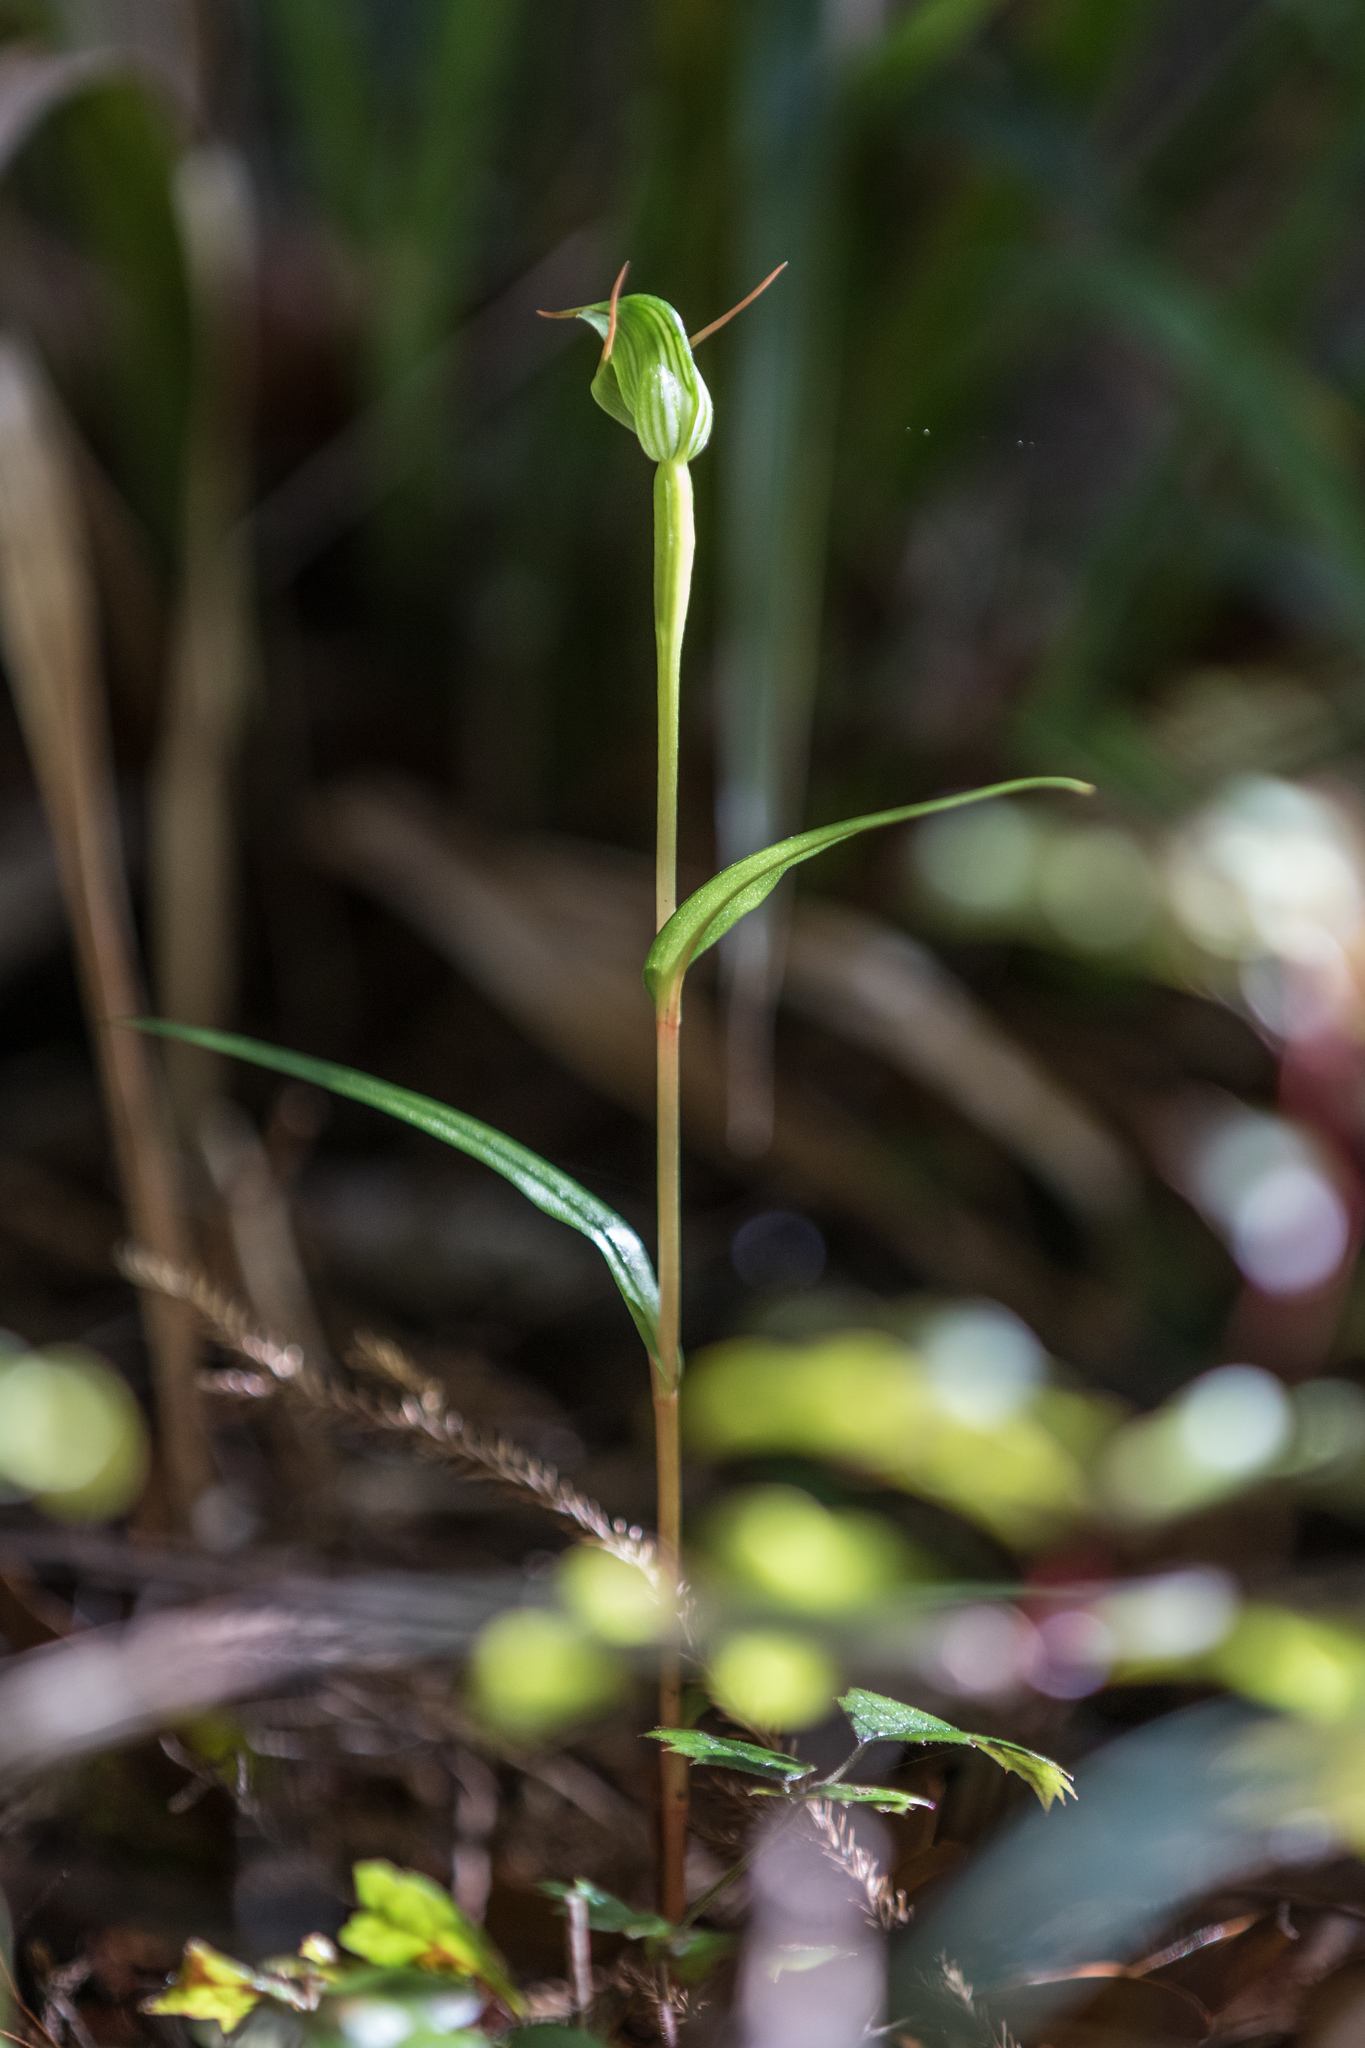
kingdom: Plantae
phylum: Tracheophyta
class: Liliopsida
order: Asparagales
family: Orchidaceae
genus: Pterostylis
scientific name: Pterostylis agathicola
